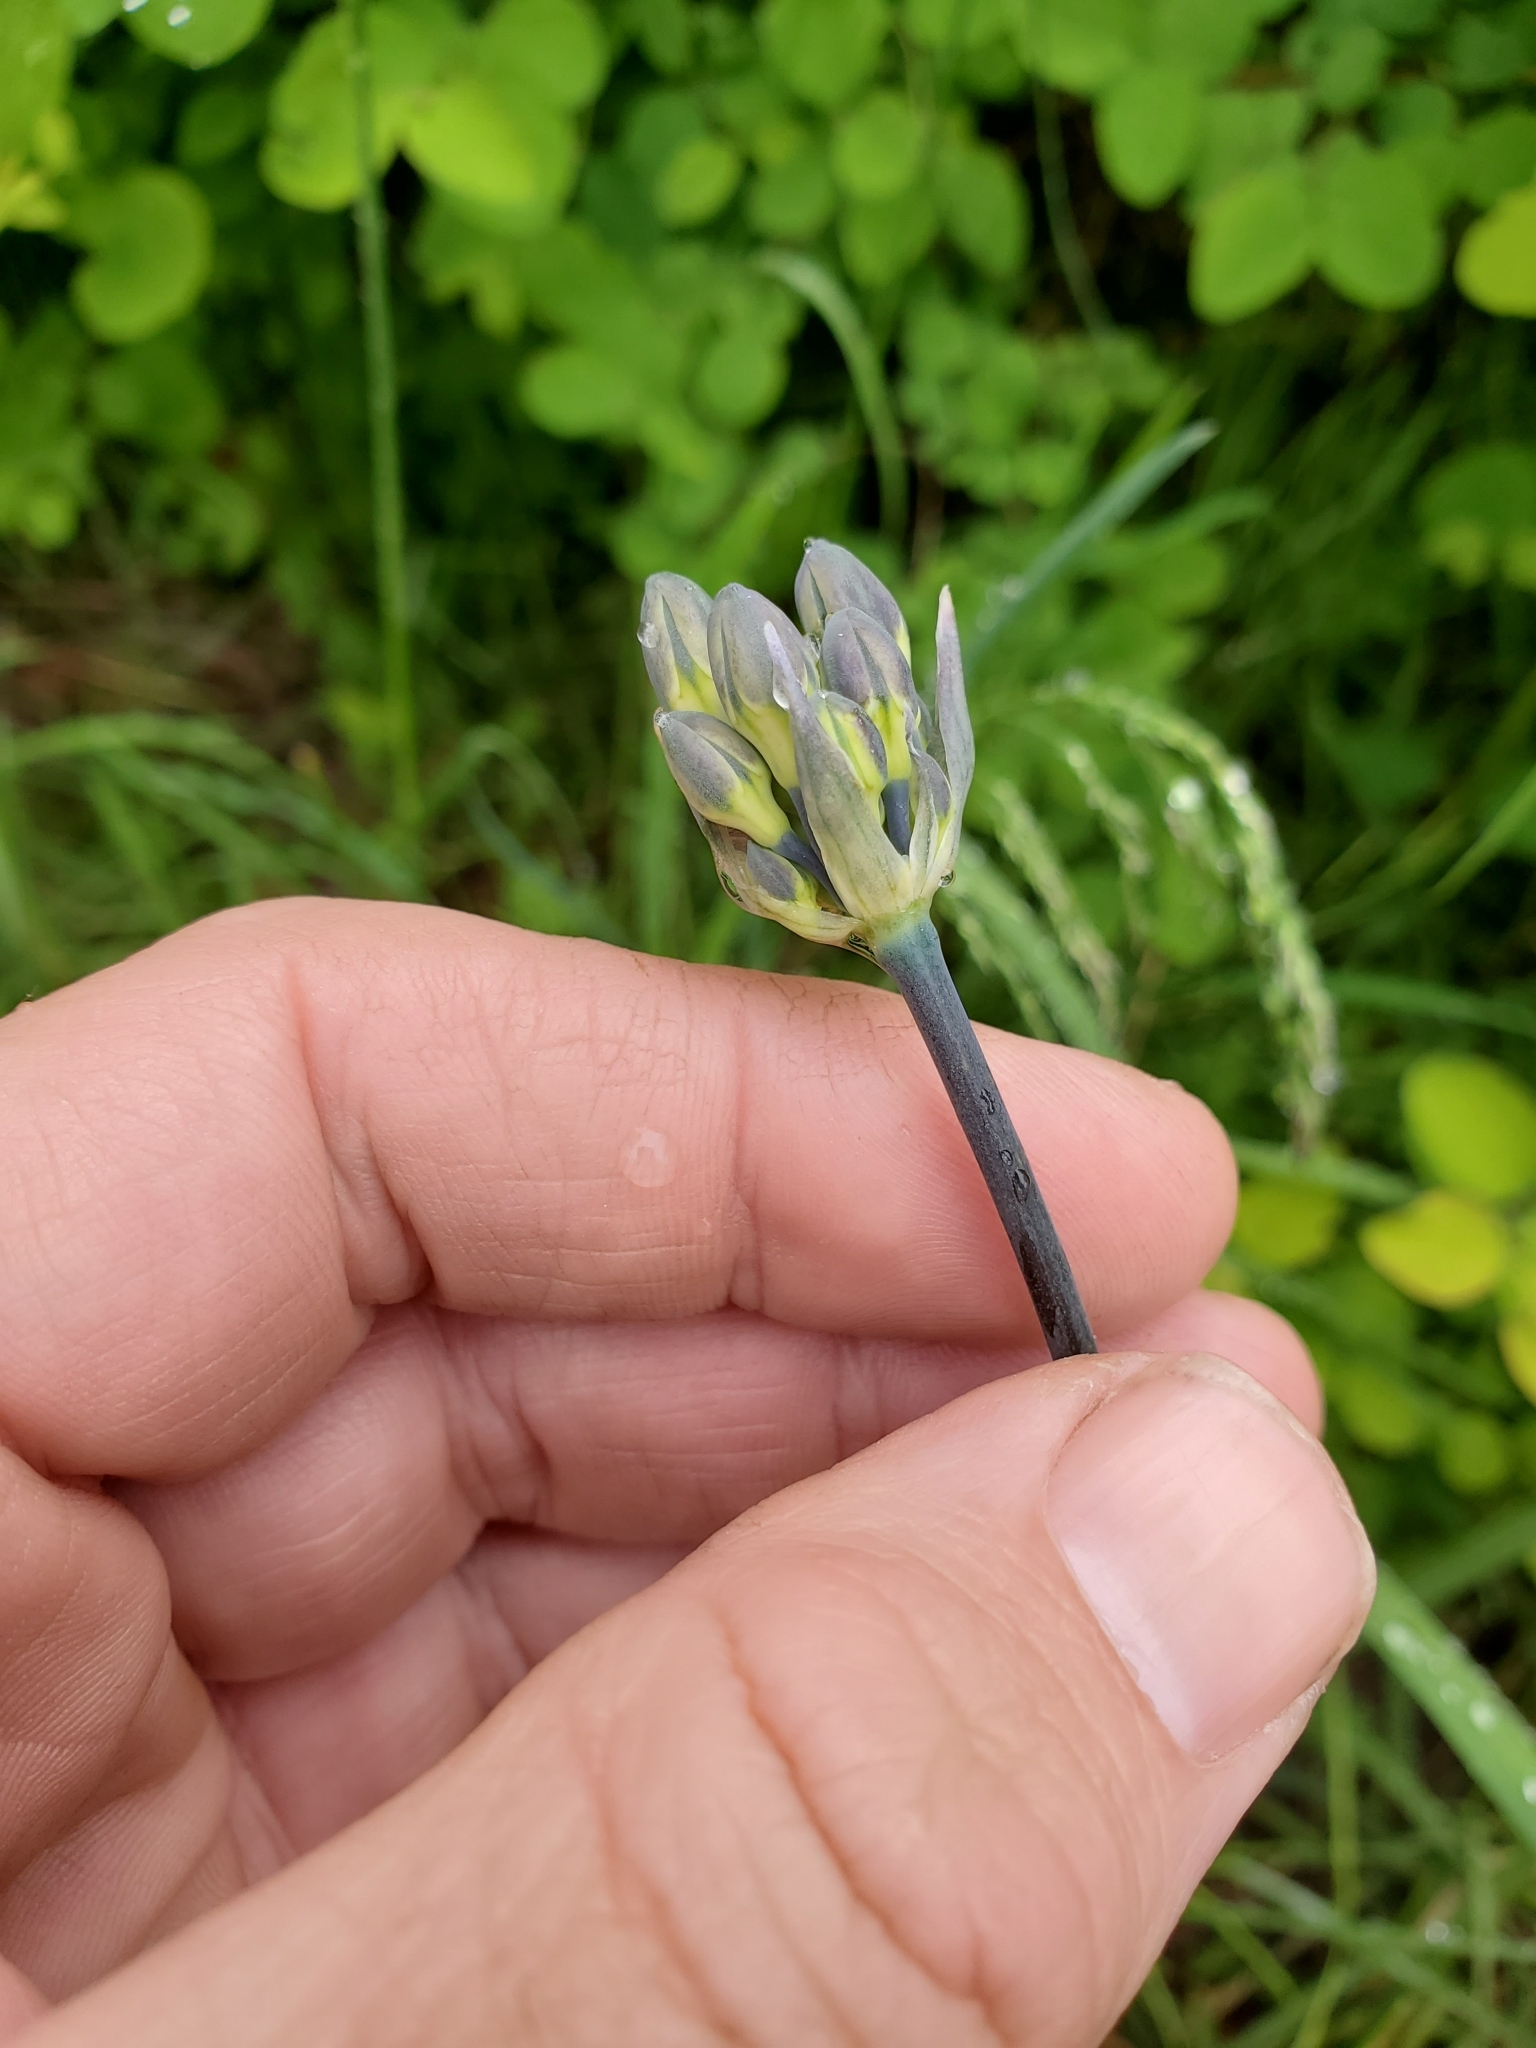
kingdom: Plantae
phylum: Tracheophyta
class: Liliopsida
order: Asparagales
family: Asparagaceae
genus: Triteleia
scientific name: Triteleia grandiflora
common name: Wild hyacinth
